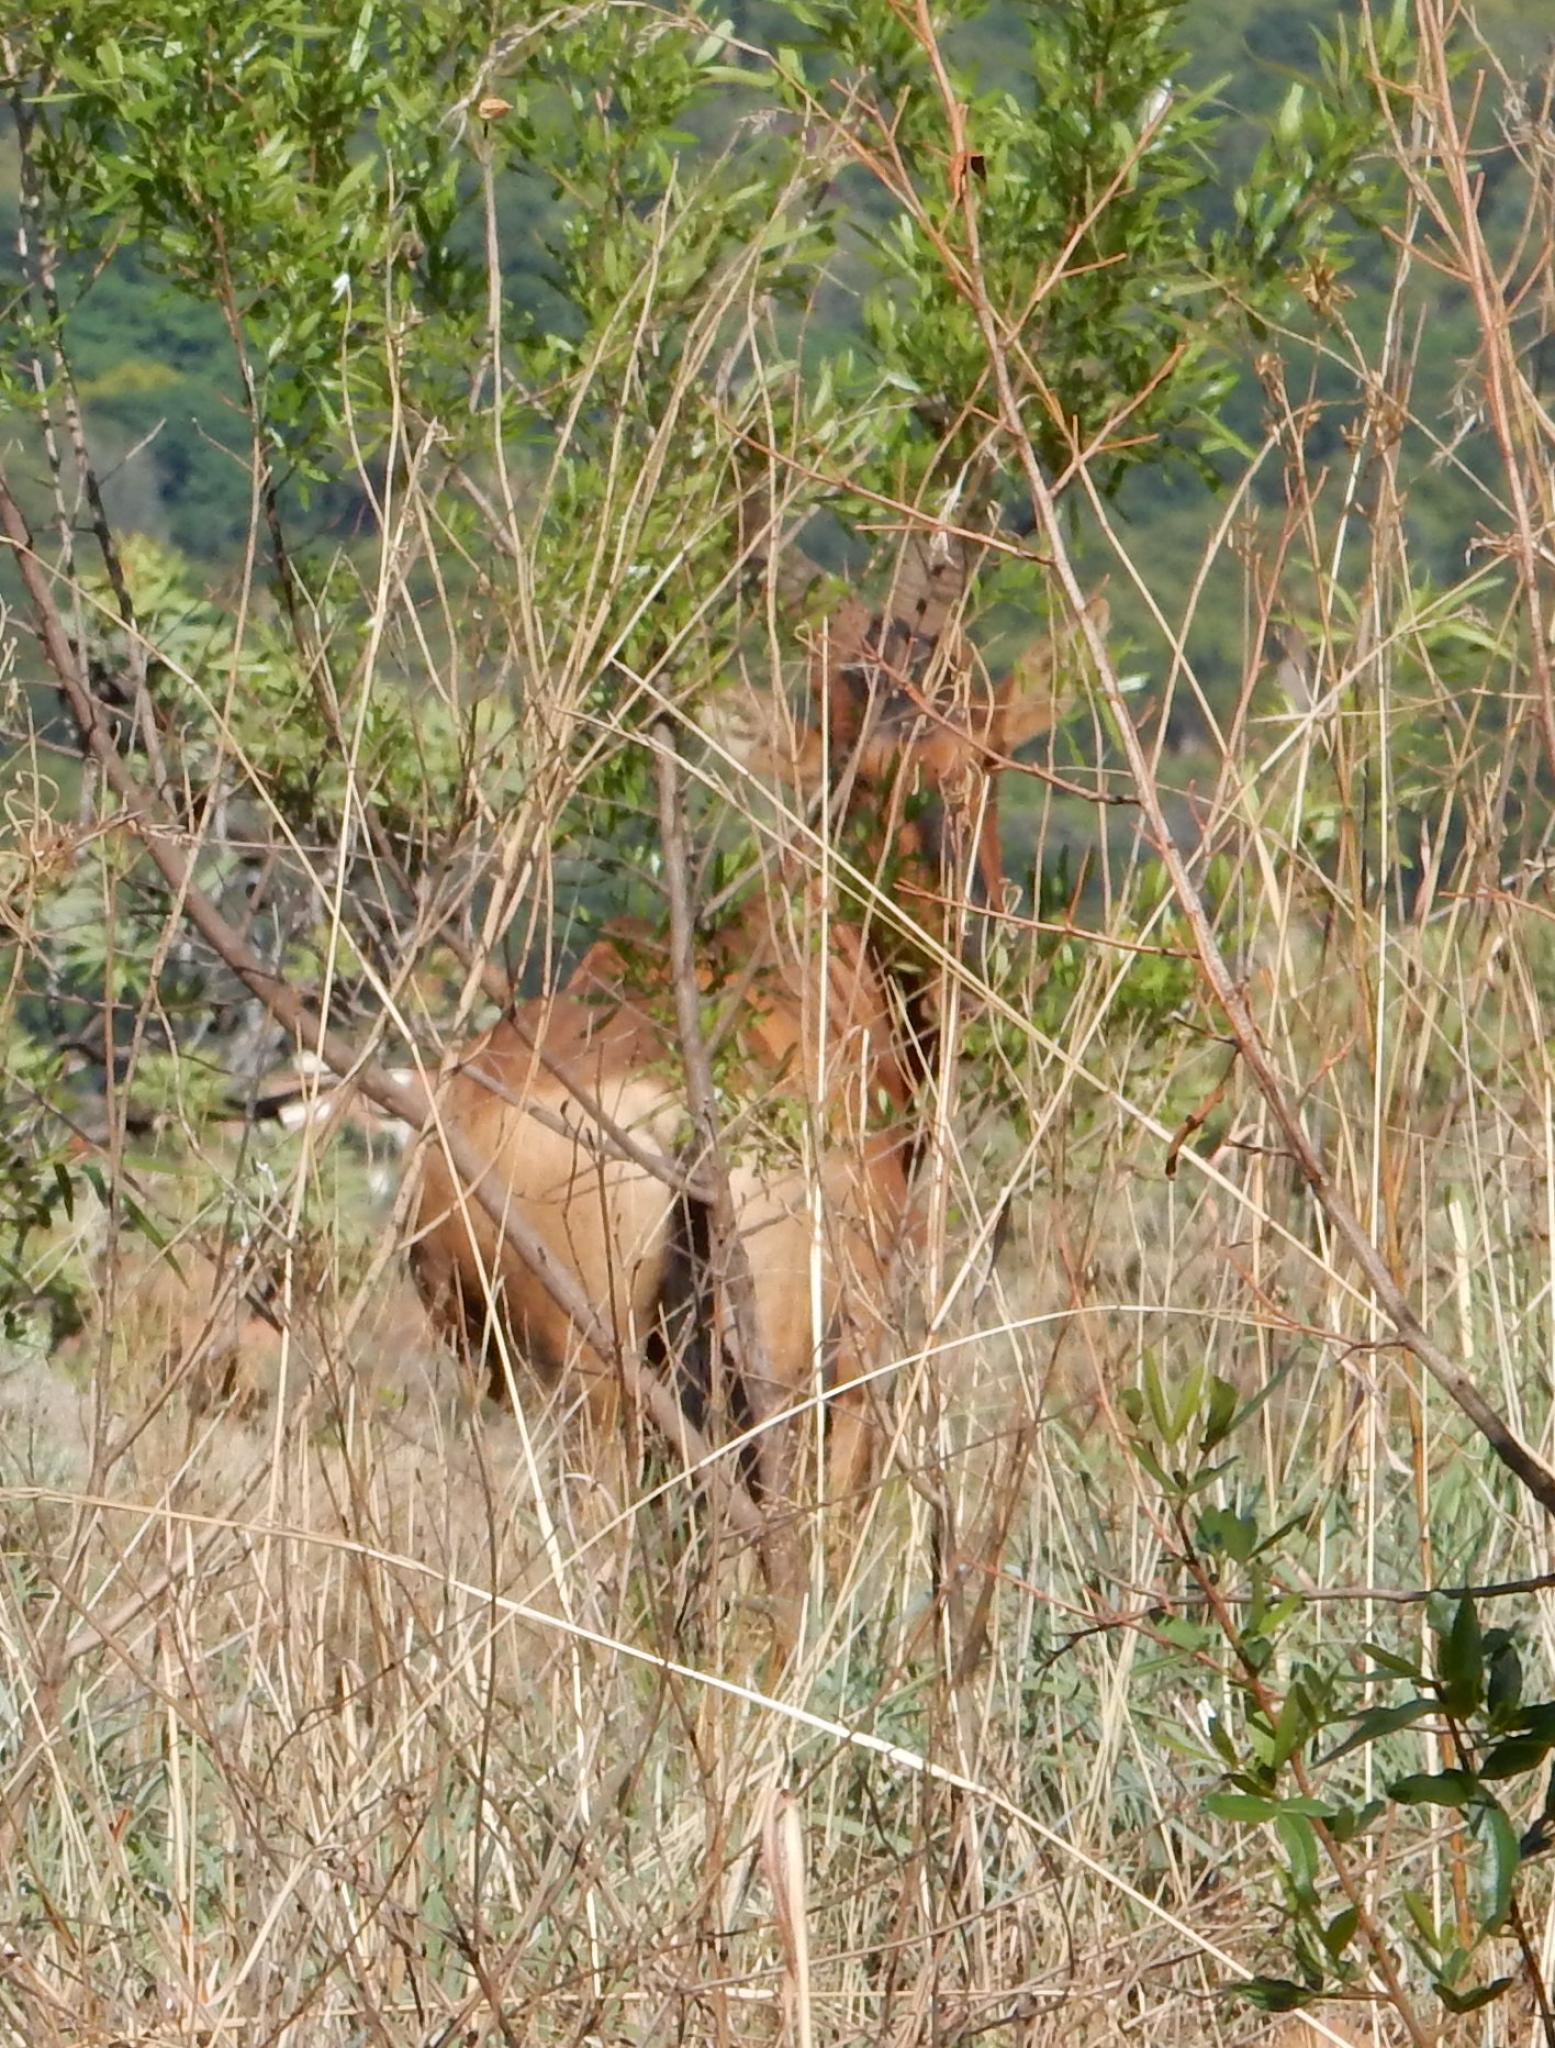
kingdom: Animalia
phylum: Chordata
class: Mammalia
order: Artiodactyla
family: Bovidae
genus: Alcelaphus
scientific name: Alcelaphus caama
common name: Red hartebeest
